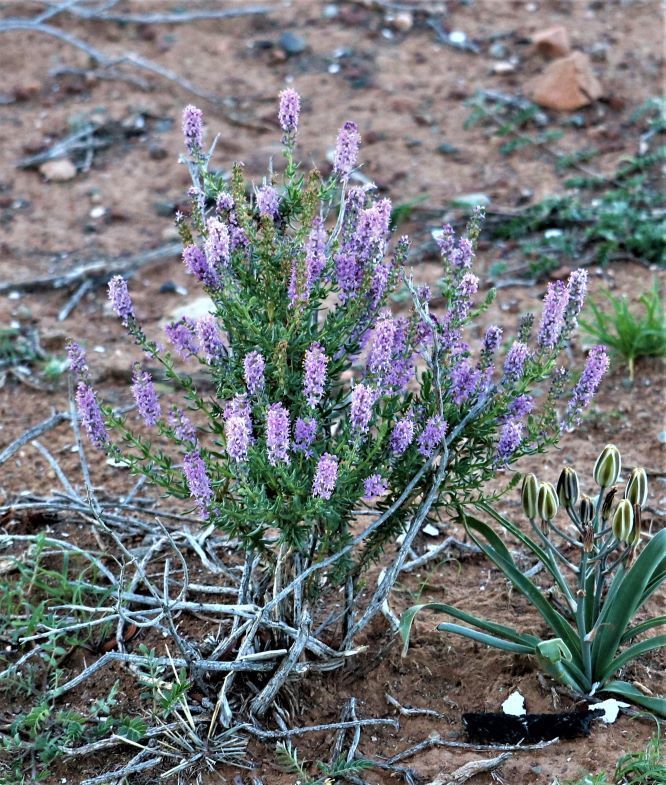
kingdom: Plantae
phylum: Tracheophyta
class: Magnoliopsida
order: Lamiales
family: Scrophulariaceae
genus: Selago
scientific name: Selago geniculata
